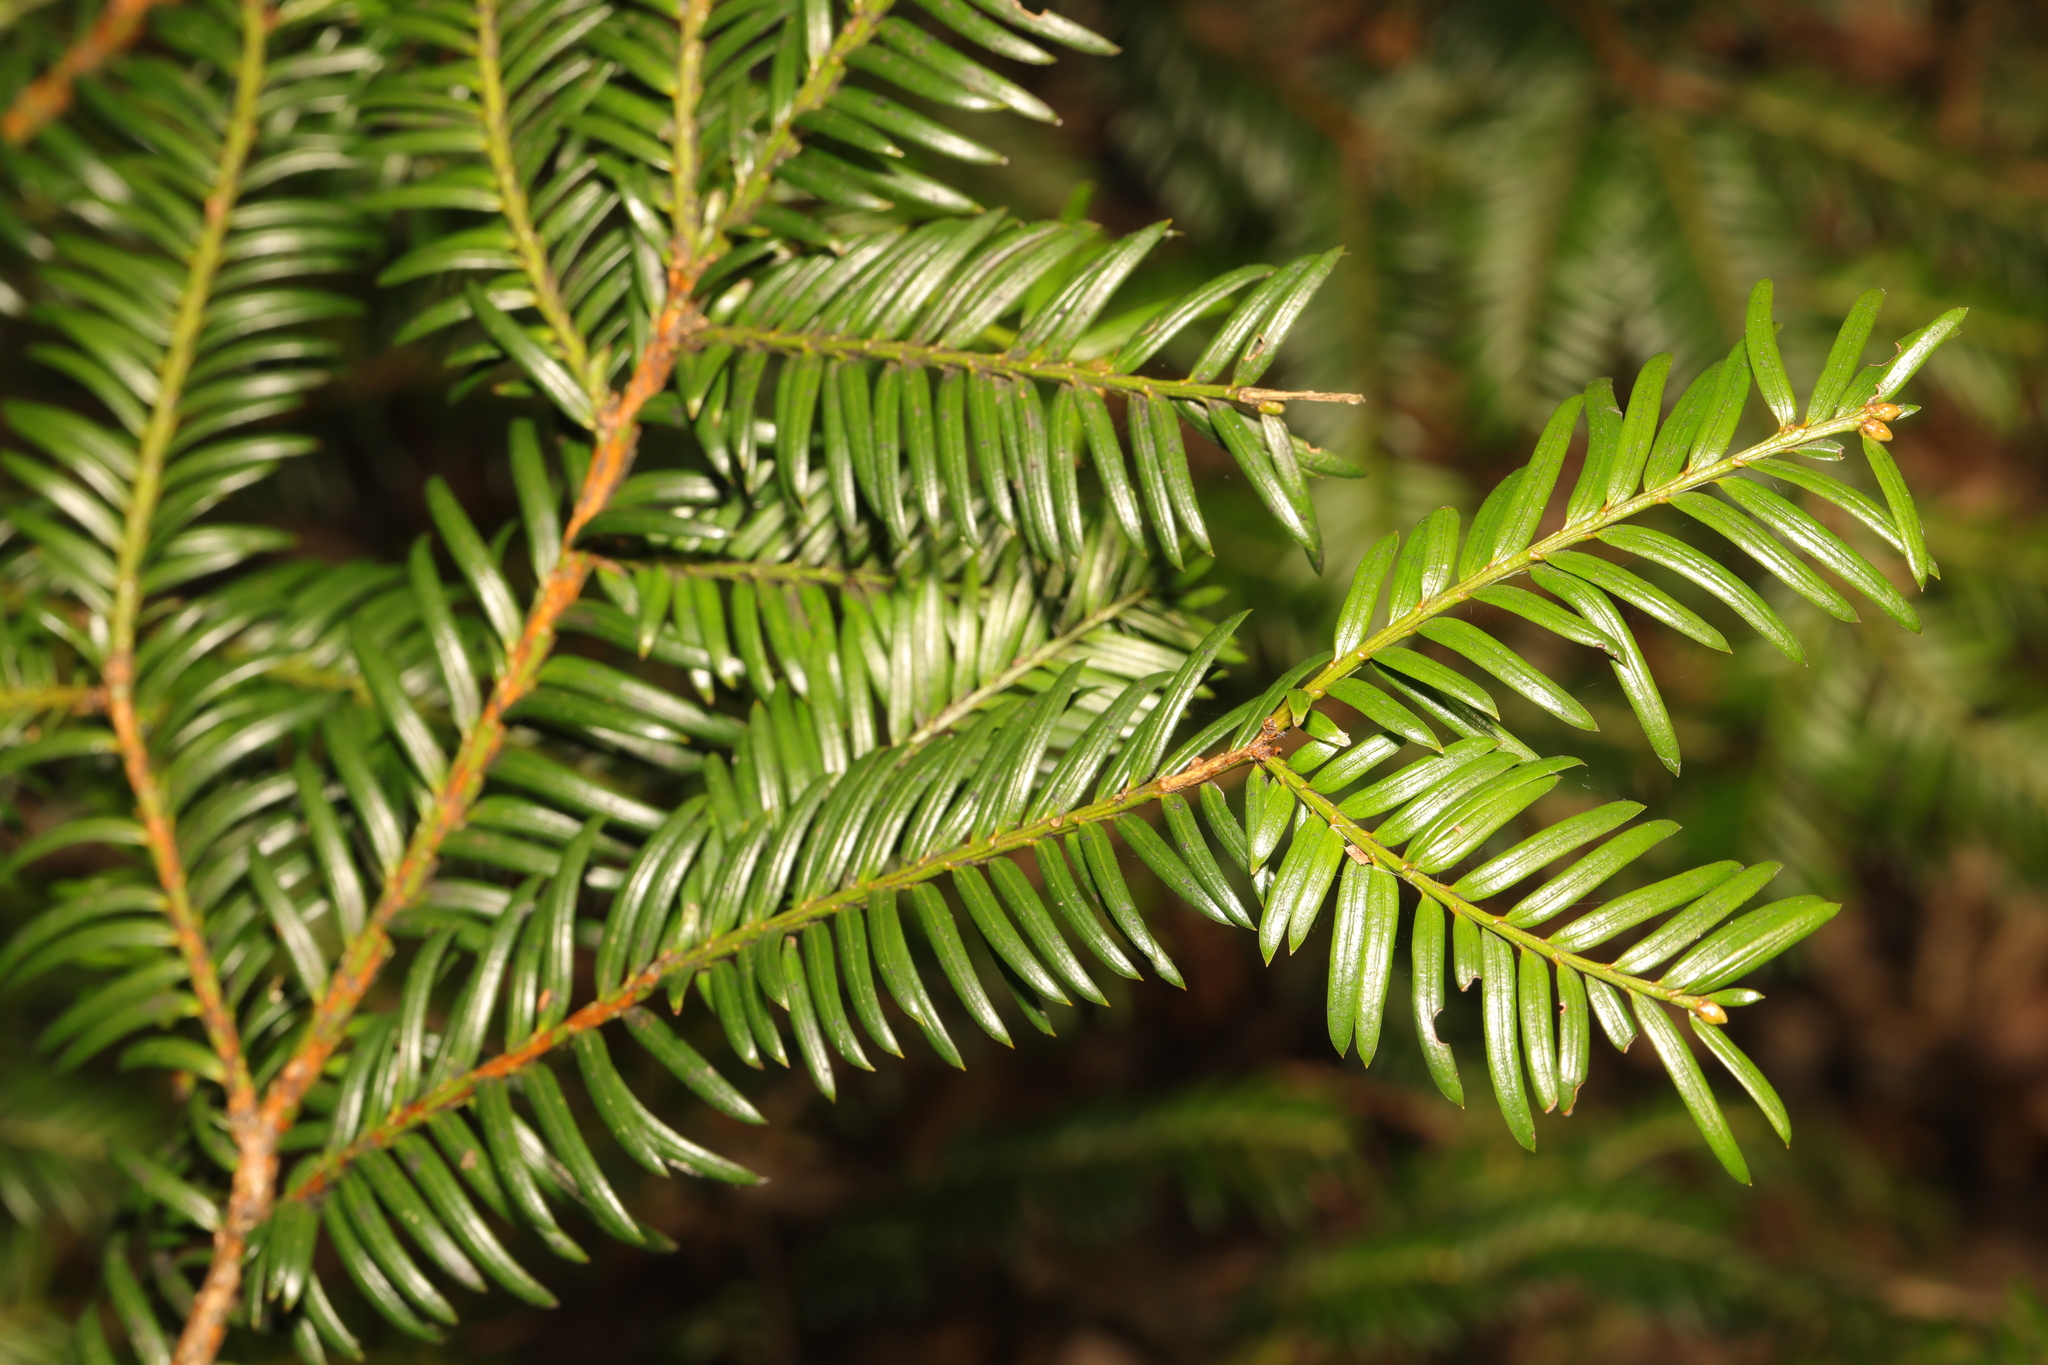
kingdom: Plantae
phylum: Tracheophyta
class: Pinopsida
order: Pinales
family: Taxaceae
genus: Taxus
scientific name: Taxus baccata
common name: Yew
